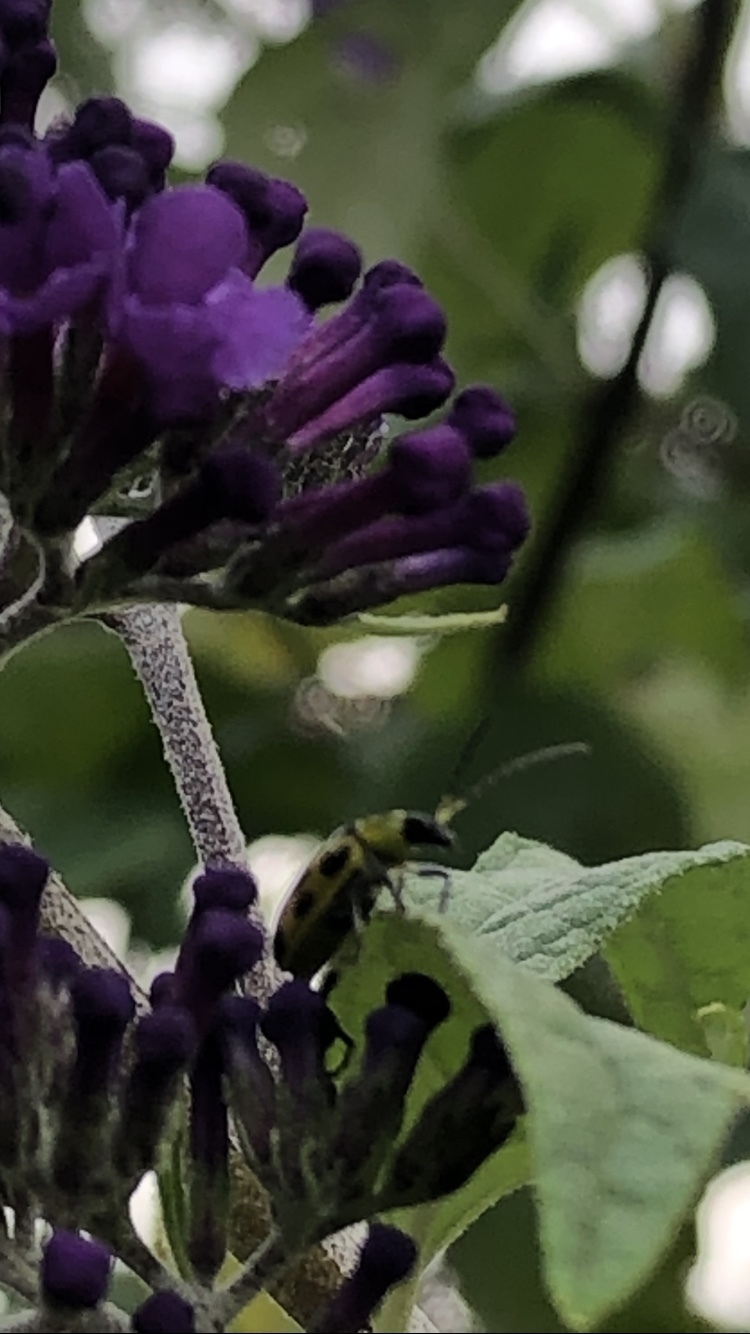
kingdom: Animalia
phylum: Arthropoda
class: Insecta
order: Coleoptera
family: Chrysomelidae
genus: Diabrotica
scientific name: Diabrotica undecimpunctata
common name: Spotted cucumber beetle
